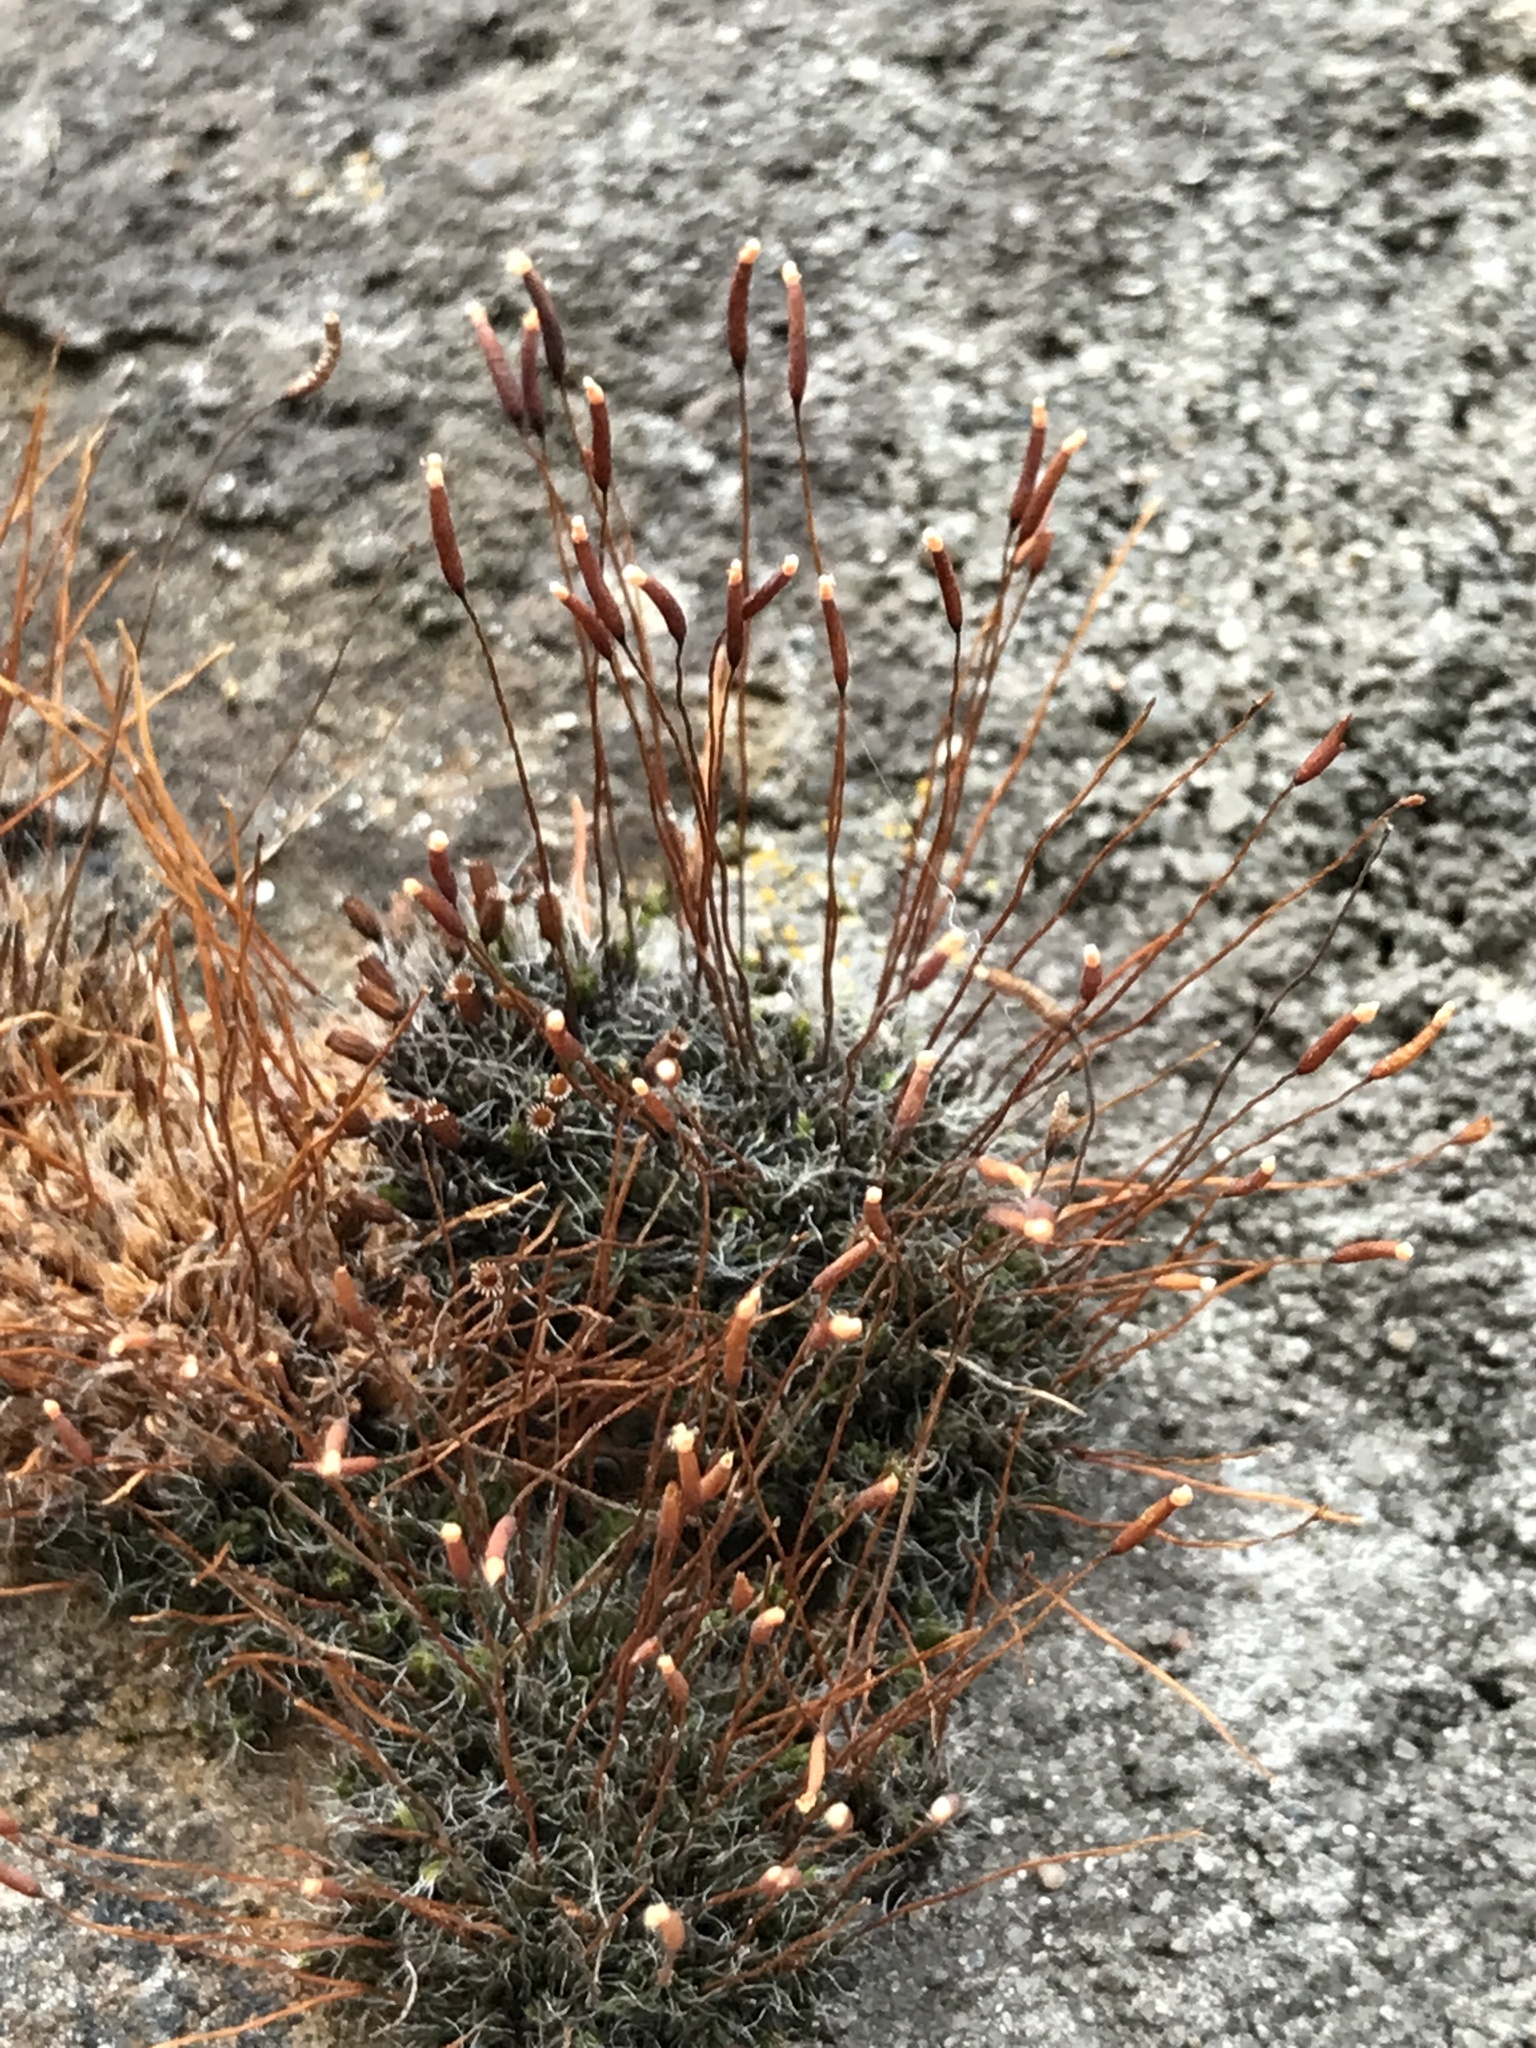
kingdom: Plantae
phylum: Bryophyta
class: Bryopsida
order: Pottiales
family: Pottiaceae
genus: Tortula
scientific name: Tortula muralis
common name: Wall screw-moss
